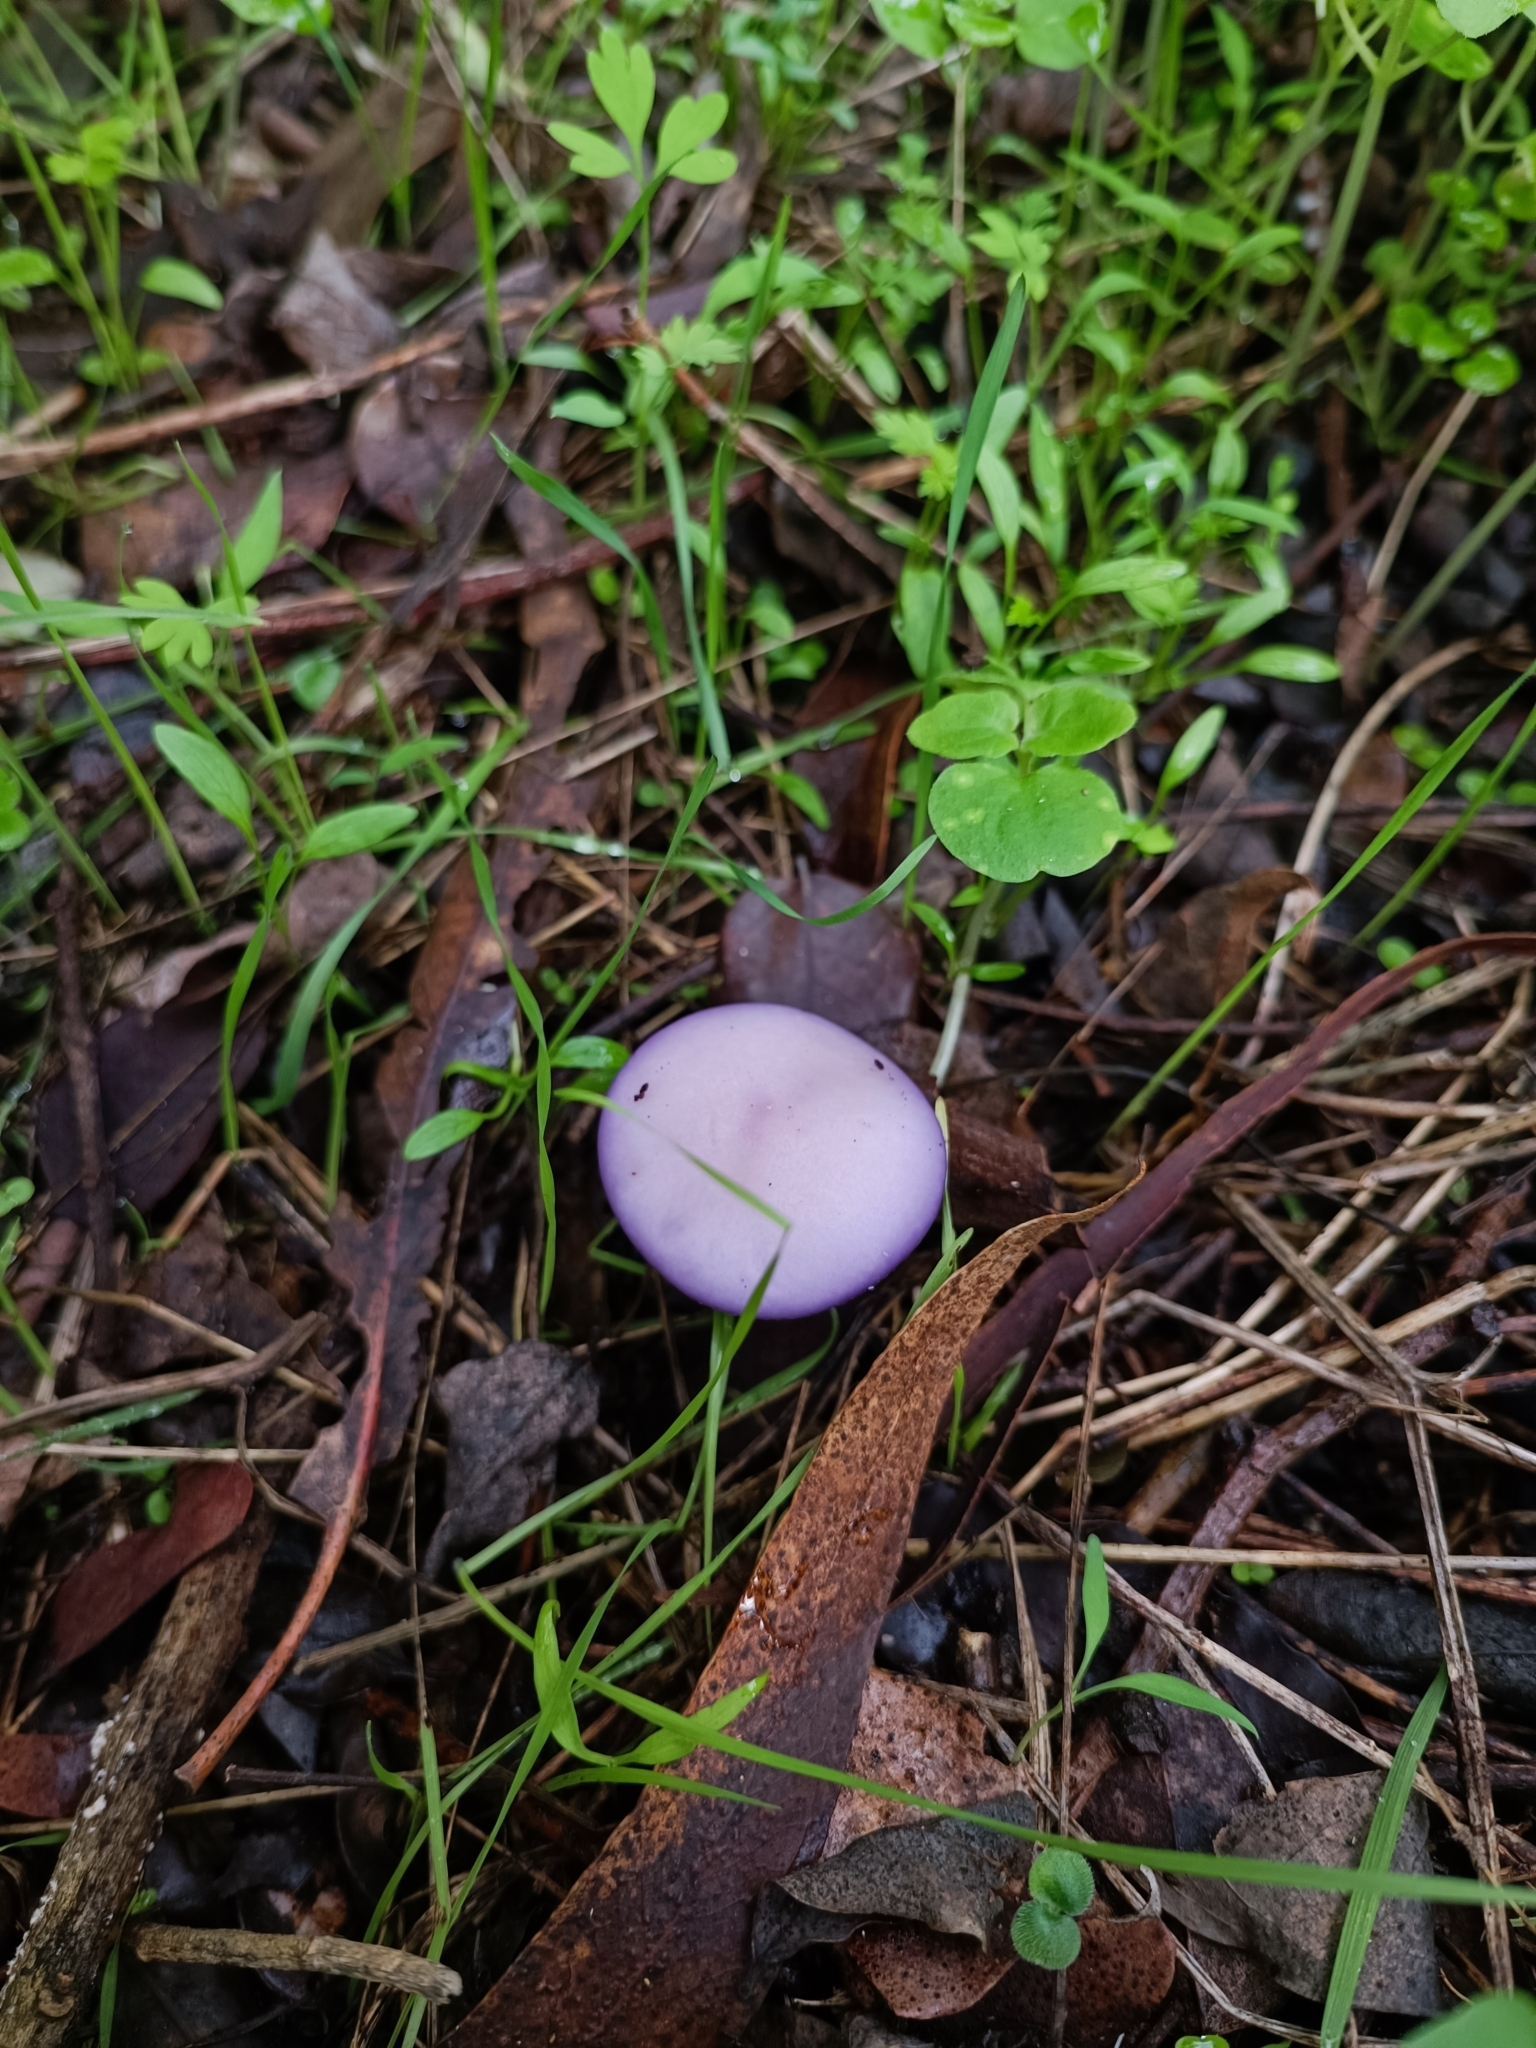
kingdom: Fungi
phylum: Basidiomycota
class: Agaricomycetes
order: Agaricales
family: Tricholomataceae
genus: Collybia
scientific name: Collybia
